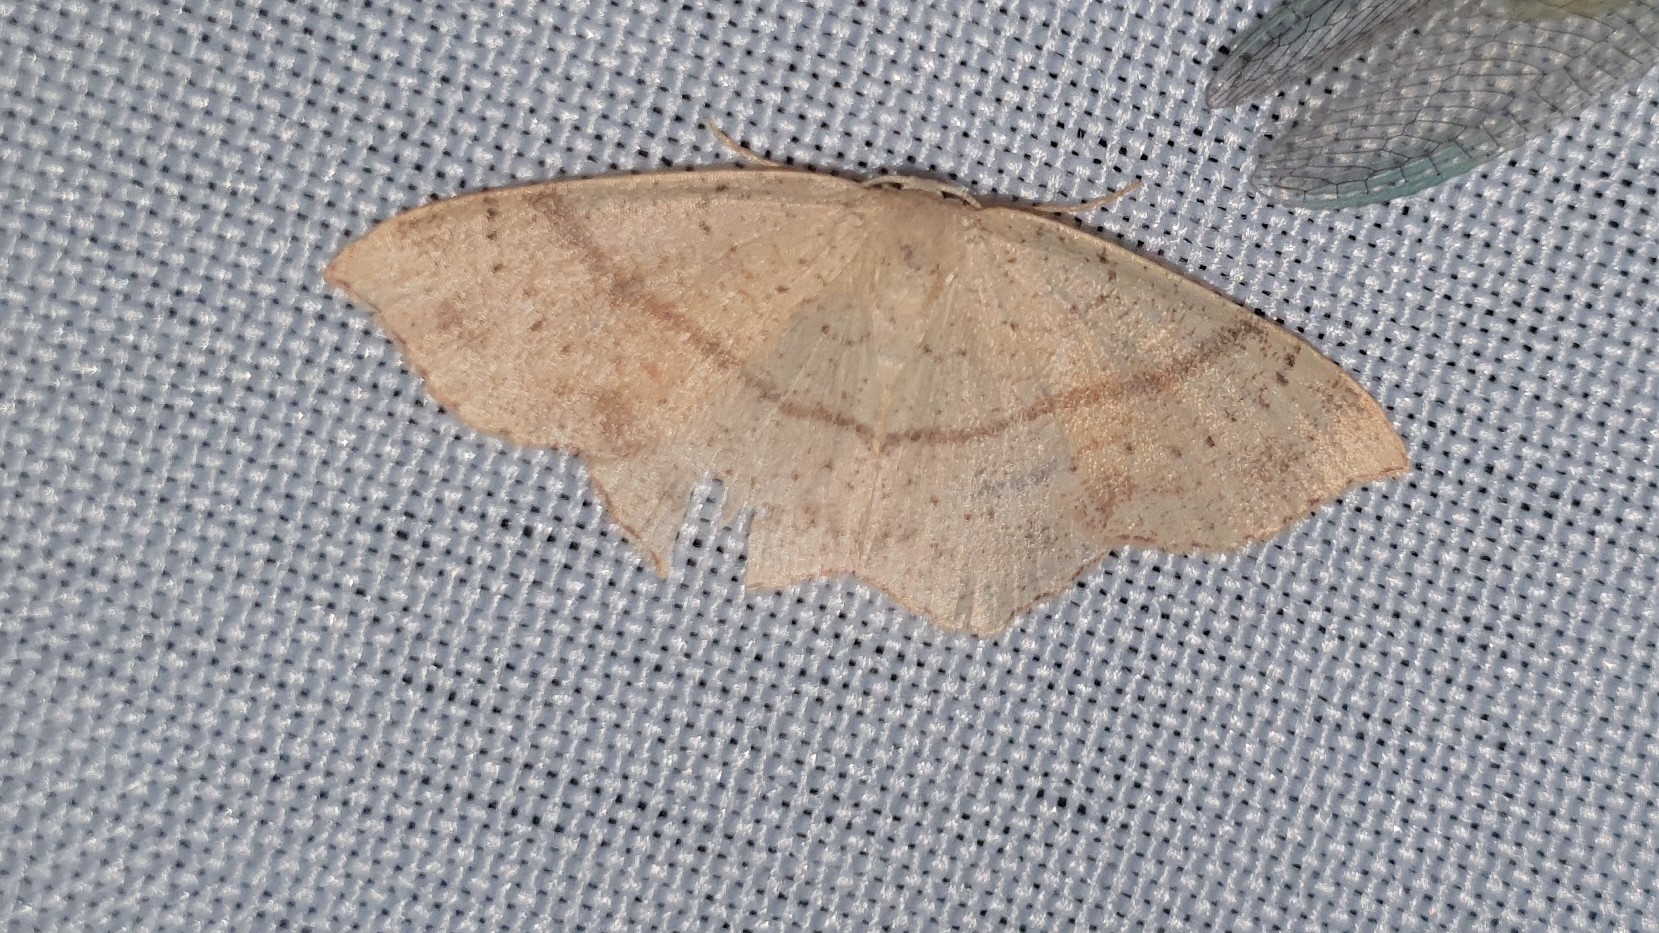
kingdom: Animalia
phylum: Arthropoda
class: Insecta
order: Lepidoptera
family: Geometridae
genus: Cyclophora
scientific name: Cyclophora punctaria
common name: Maiden's blush
